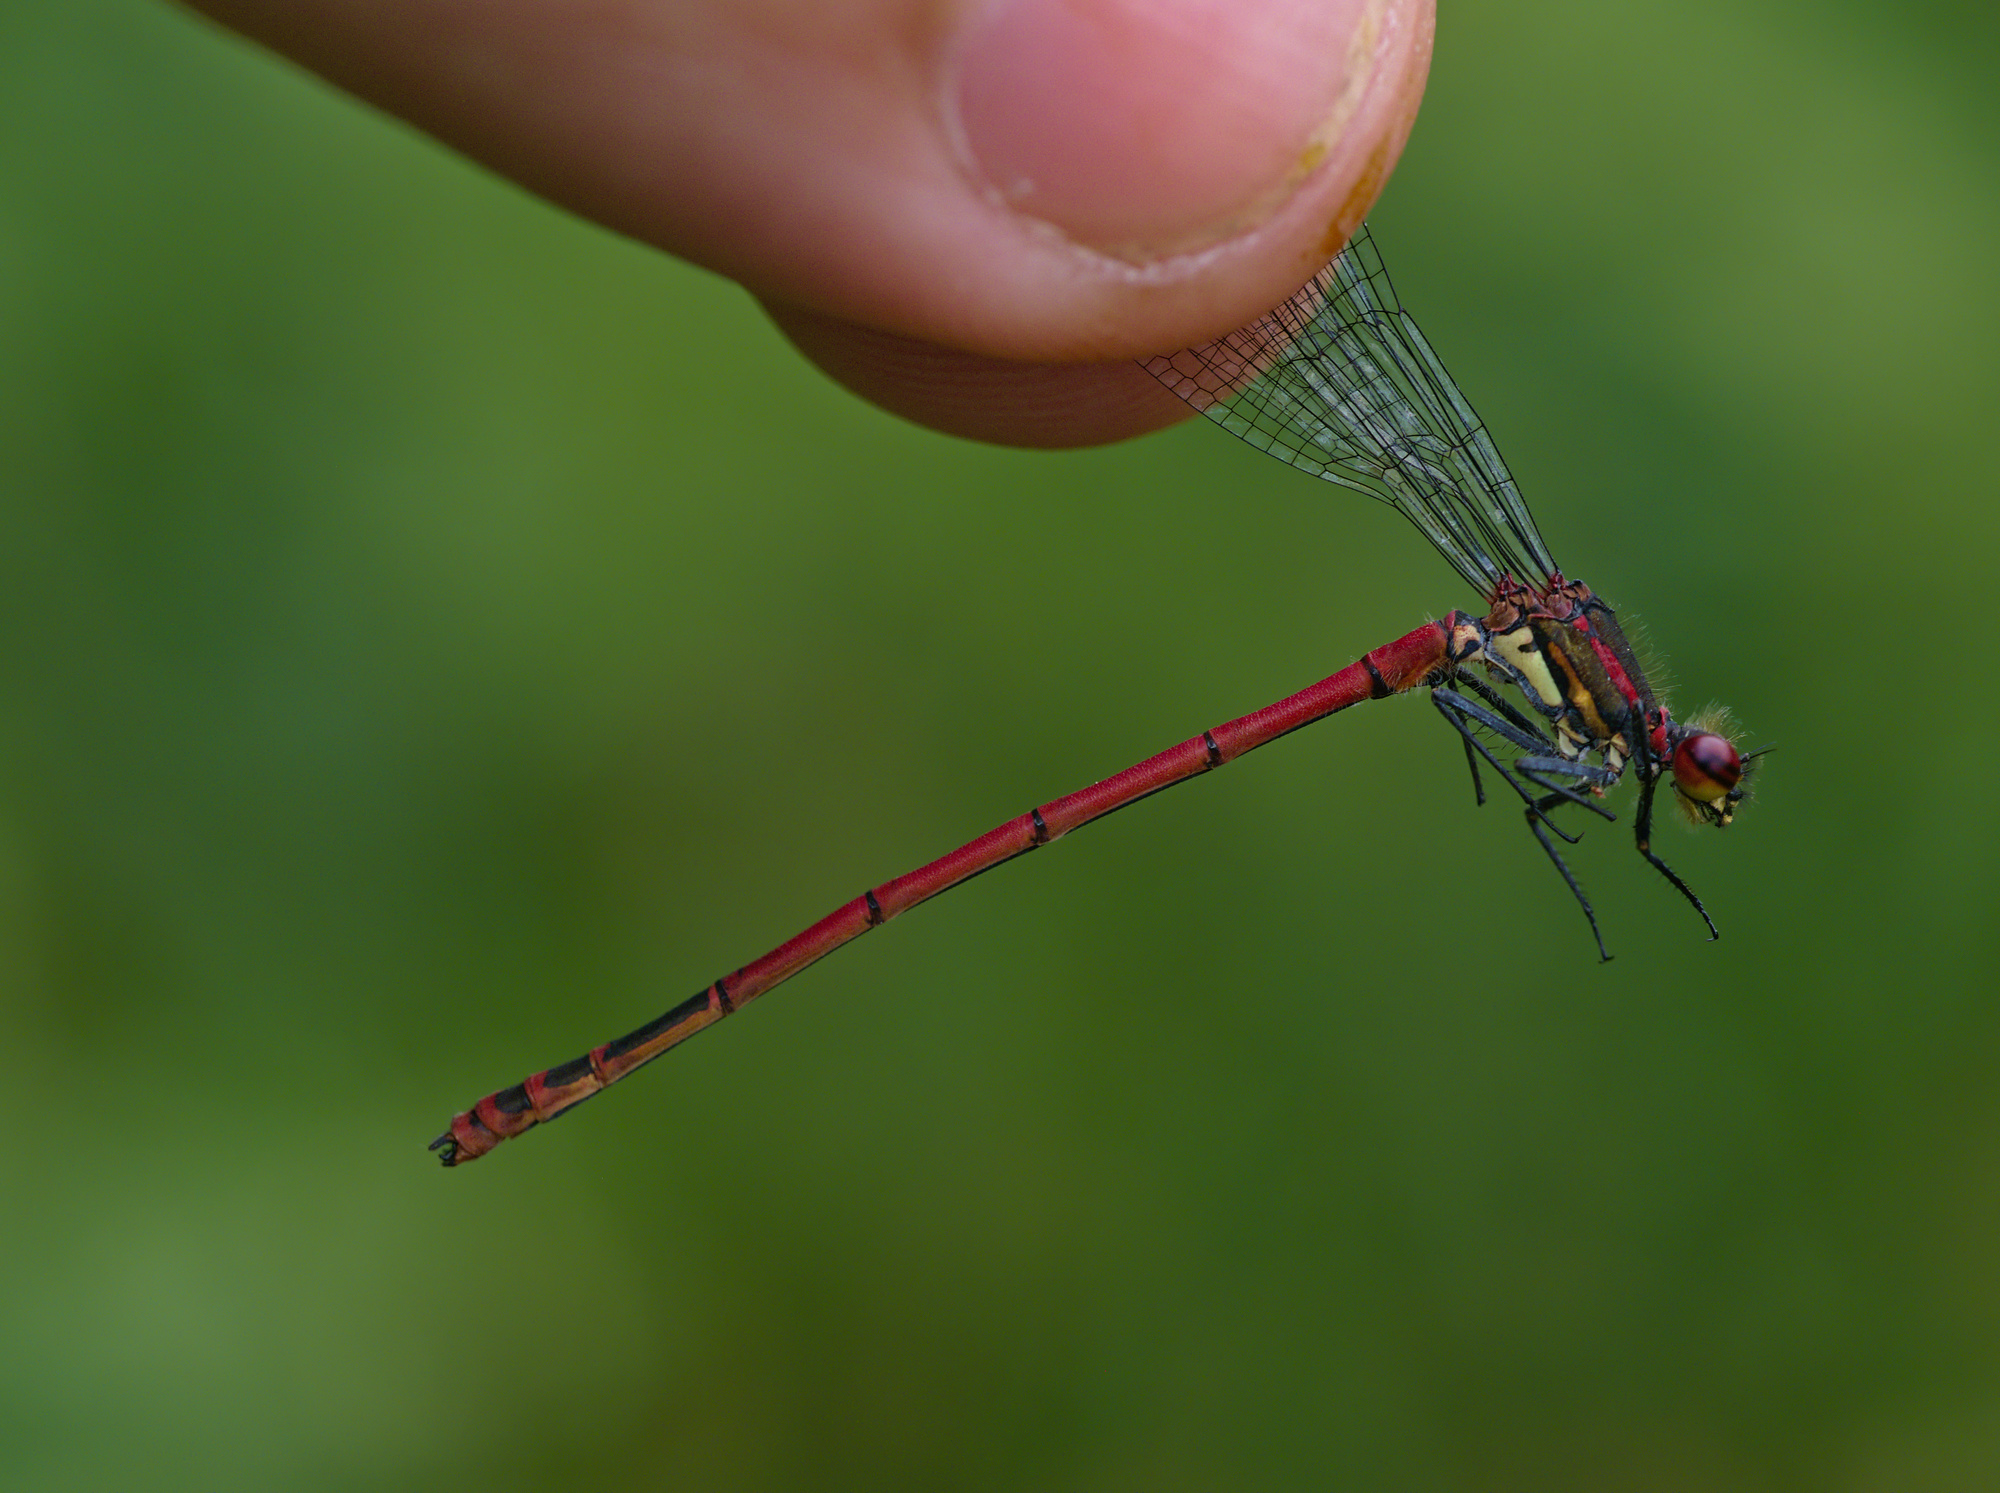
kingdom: Animalia
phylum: Arthropoda
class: Insecta
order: Odonata
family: Coenagrionidae
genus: Pyrrhosoma
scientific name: Pyrrhosoma nymphula
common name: Large red damsel
